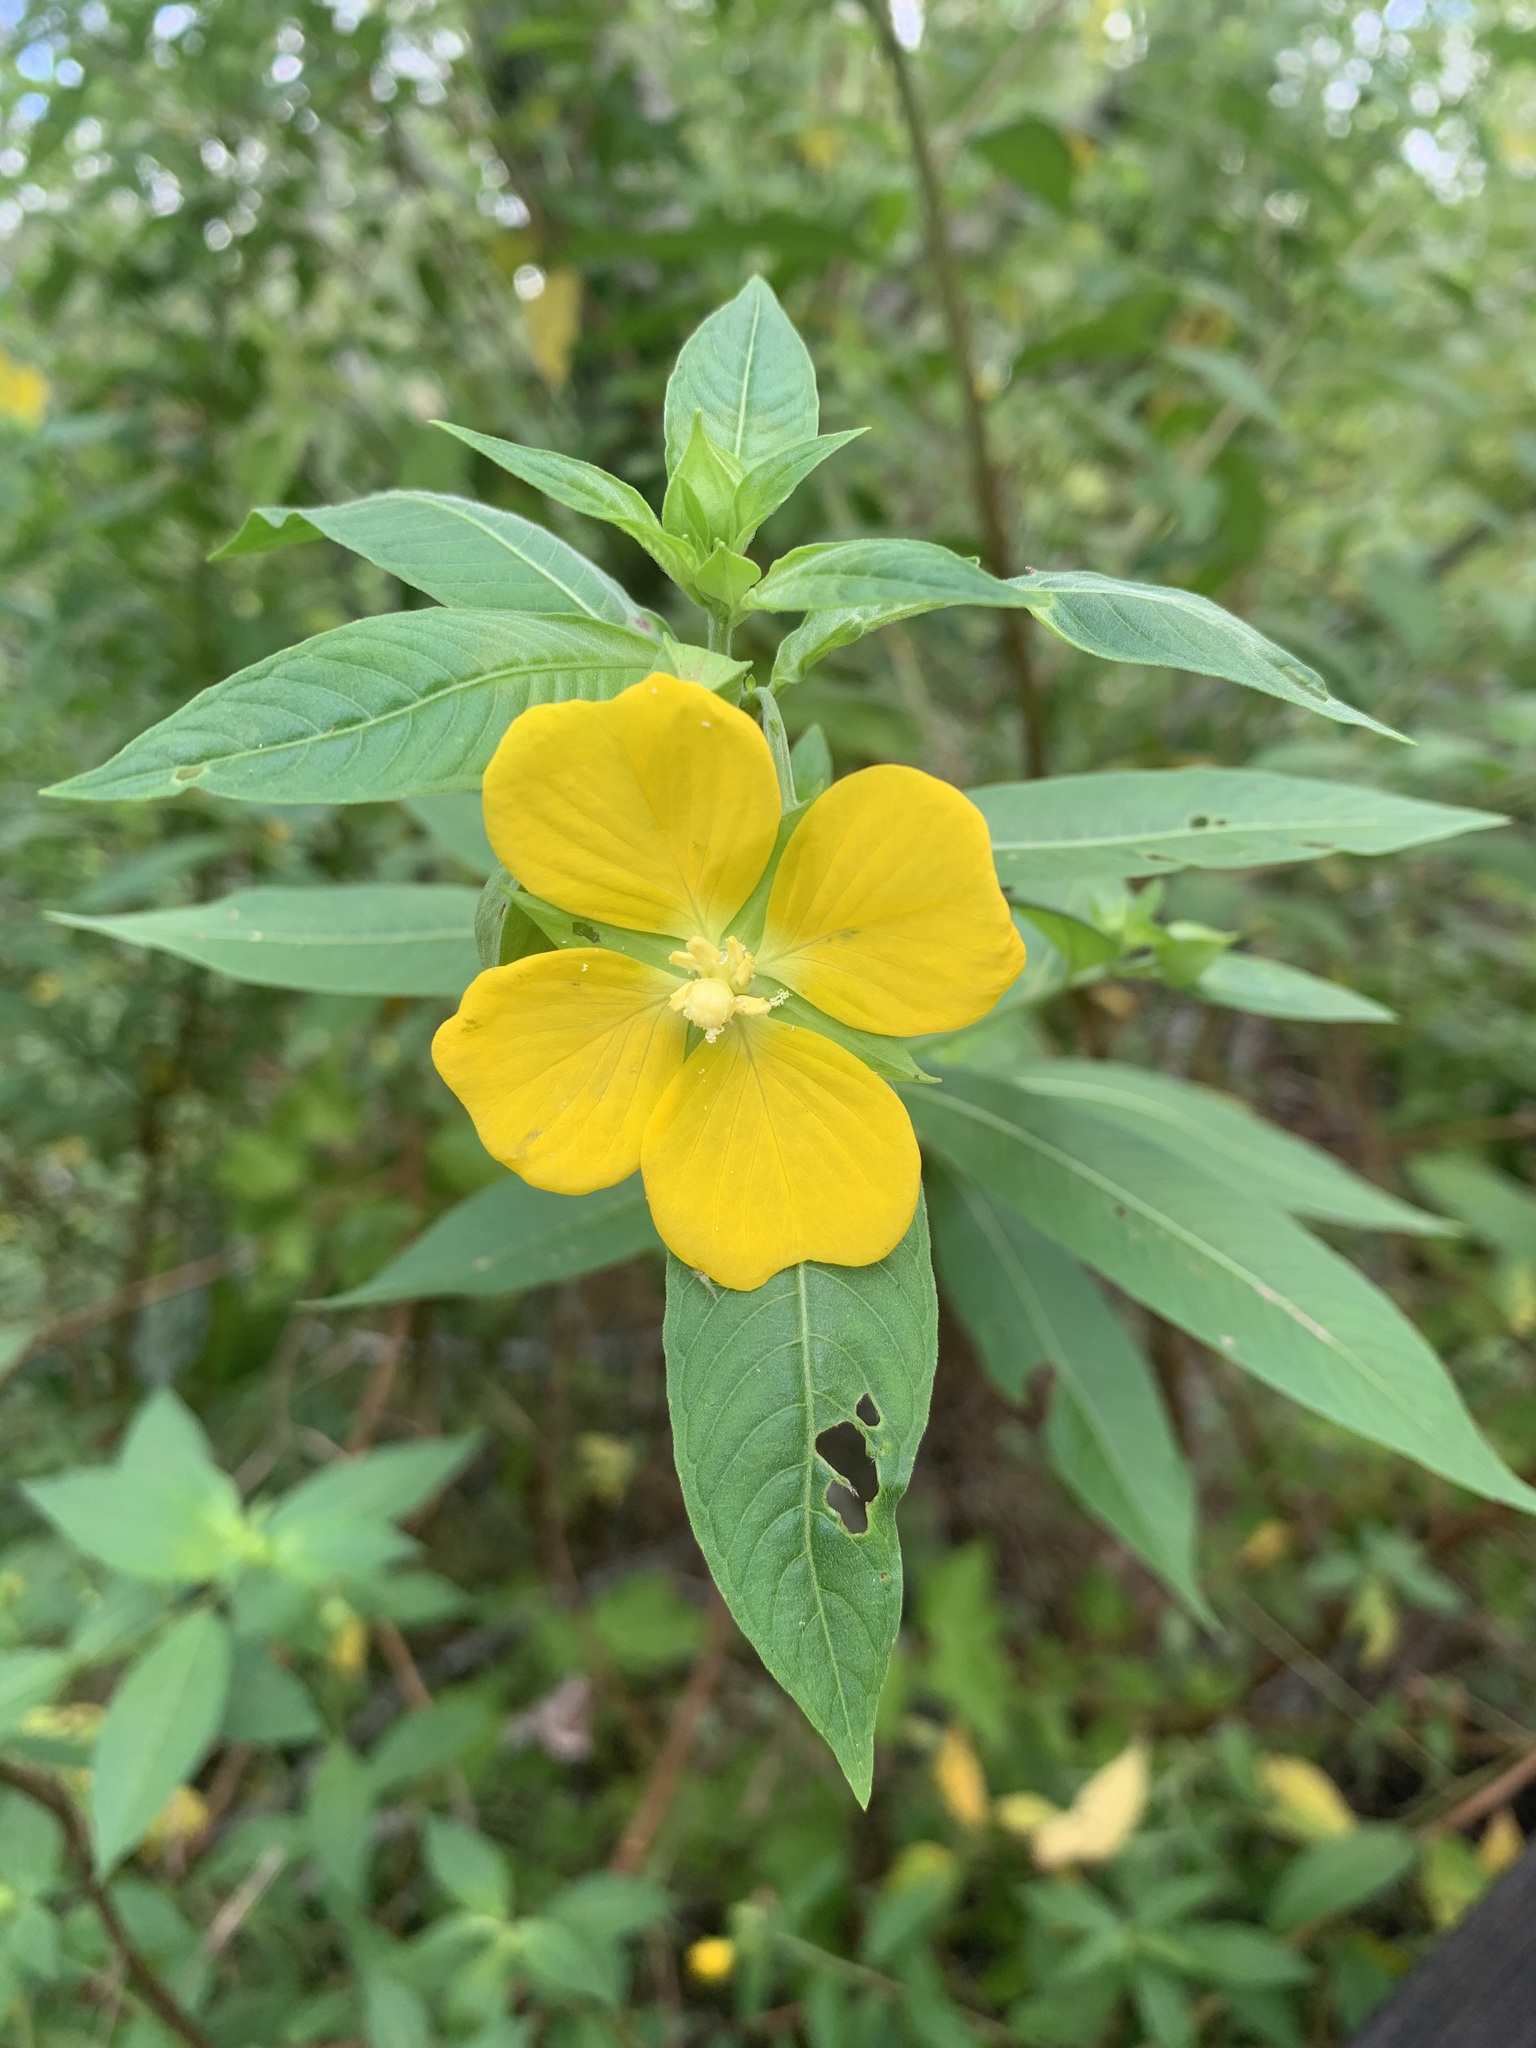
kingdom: Plantae
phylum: Tracheophyta
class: Magnoliopsida
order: Myrtales
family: Onagraceae
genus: Ludwigia
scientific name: Ludwigia peruviana
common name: Peruvian primrose-willow
